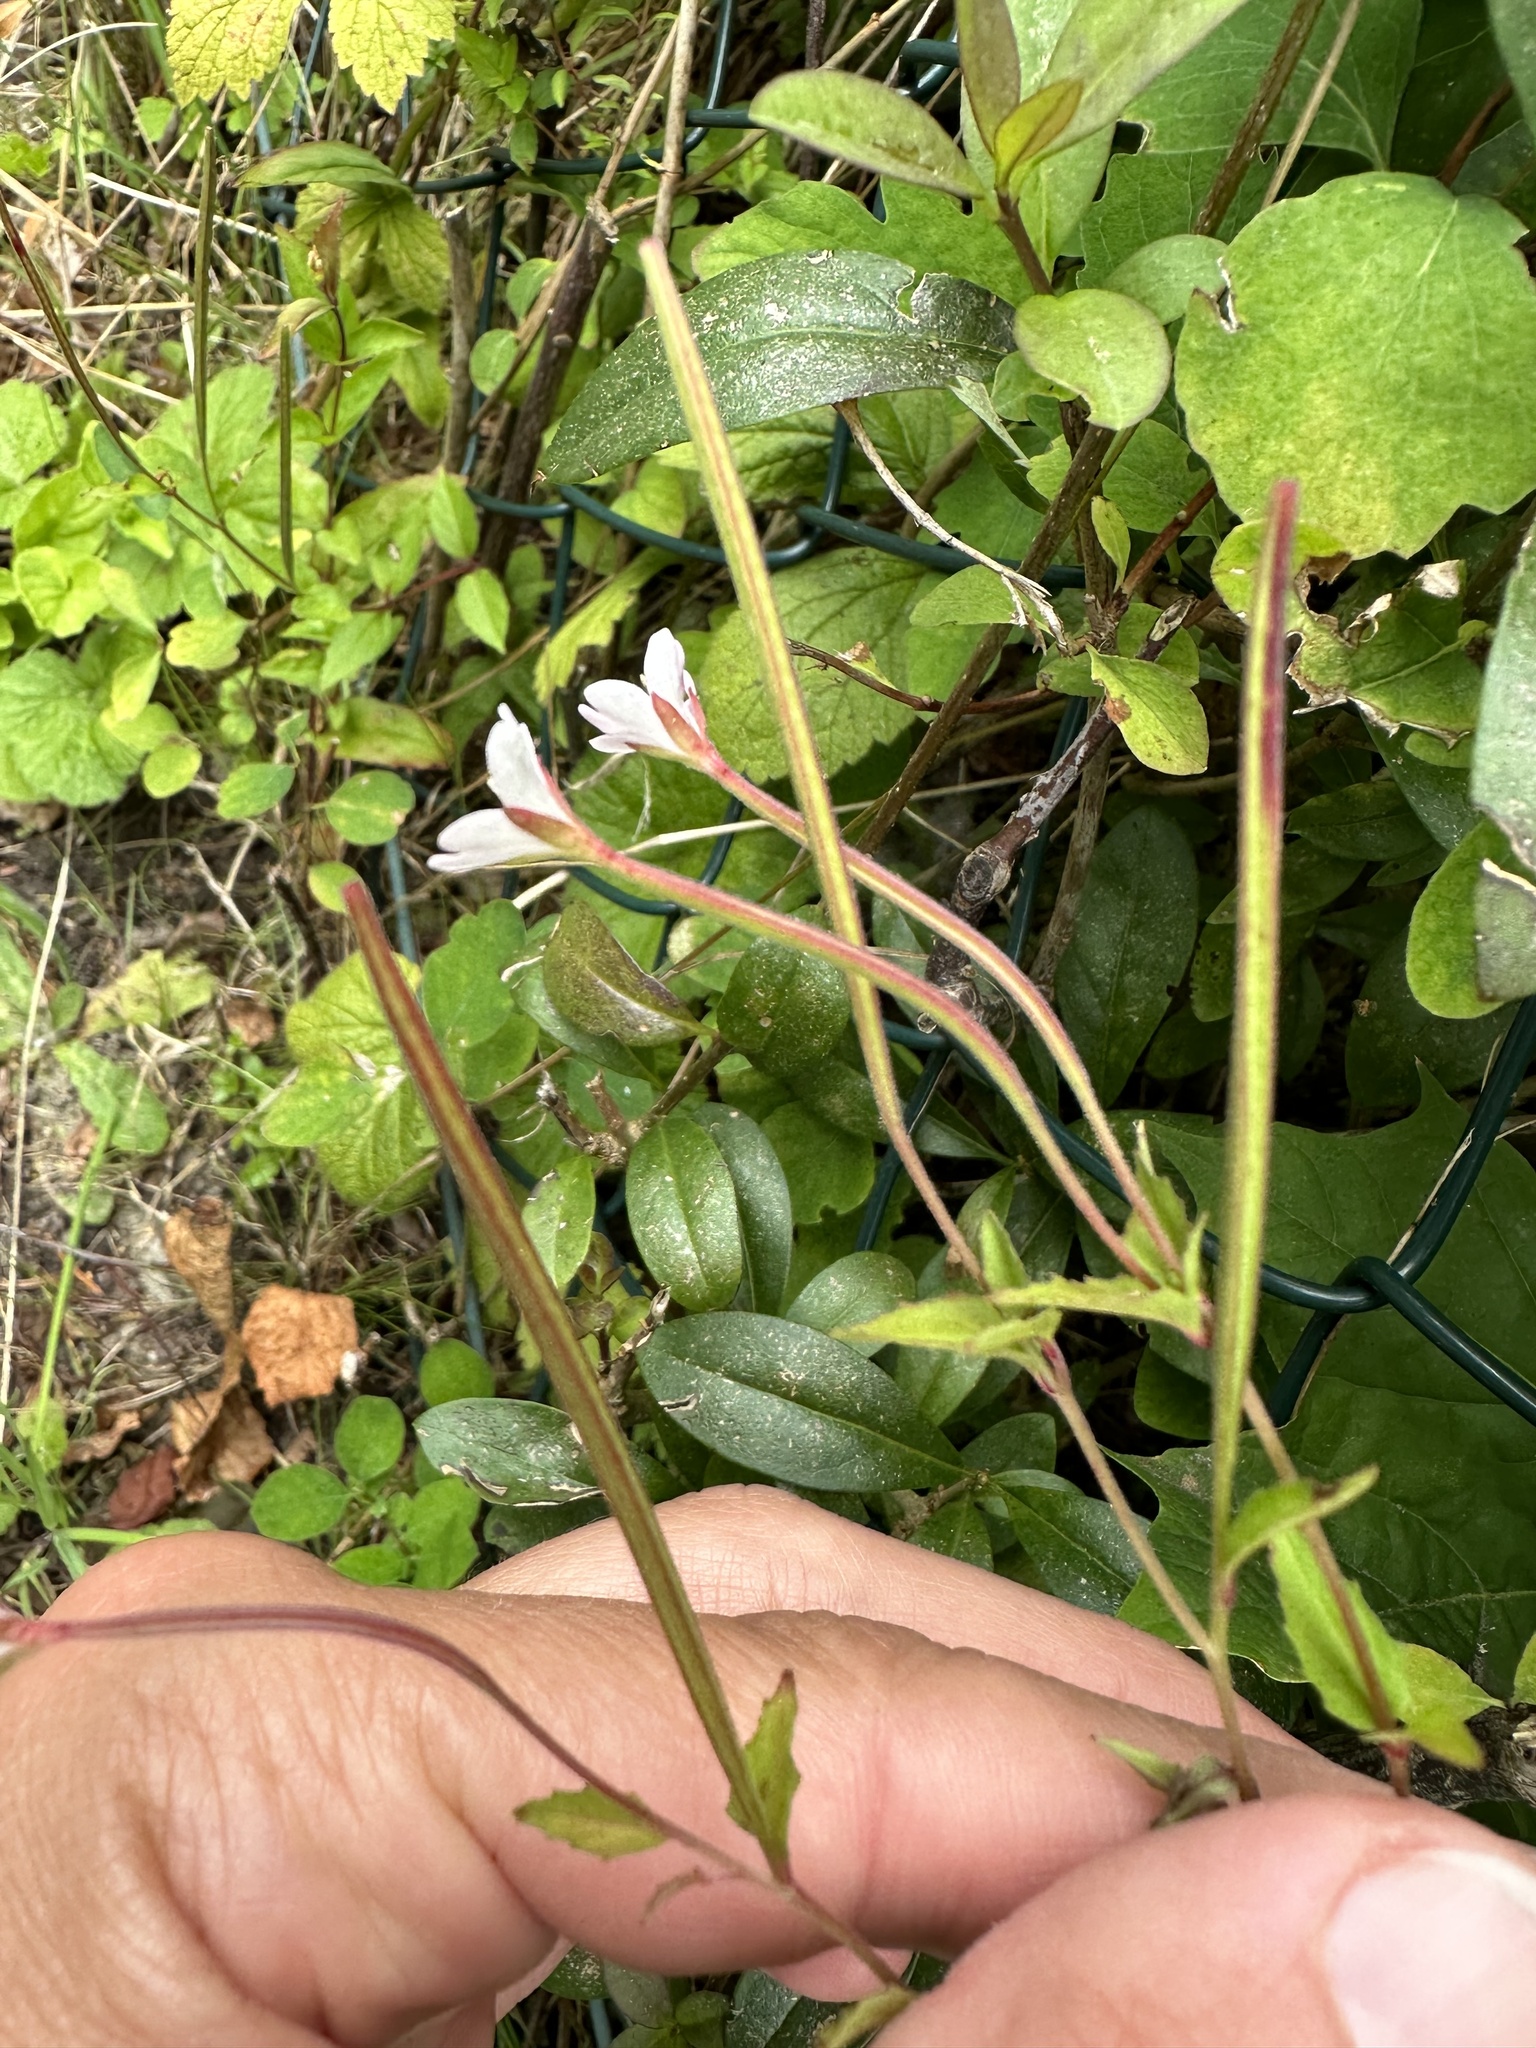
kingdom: Plantae
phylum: Tracheophyta
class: Magnoliopsida
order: Myrtales
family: Onagraceae
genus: Epilobium
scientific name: Epilobium montanum
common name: Broad-leaved willowherb
